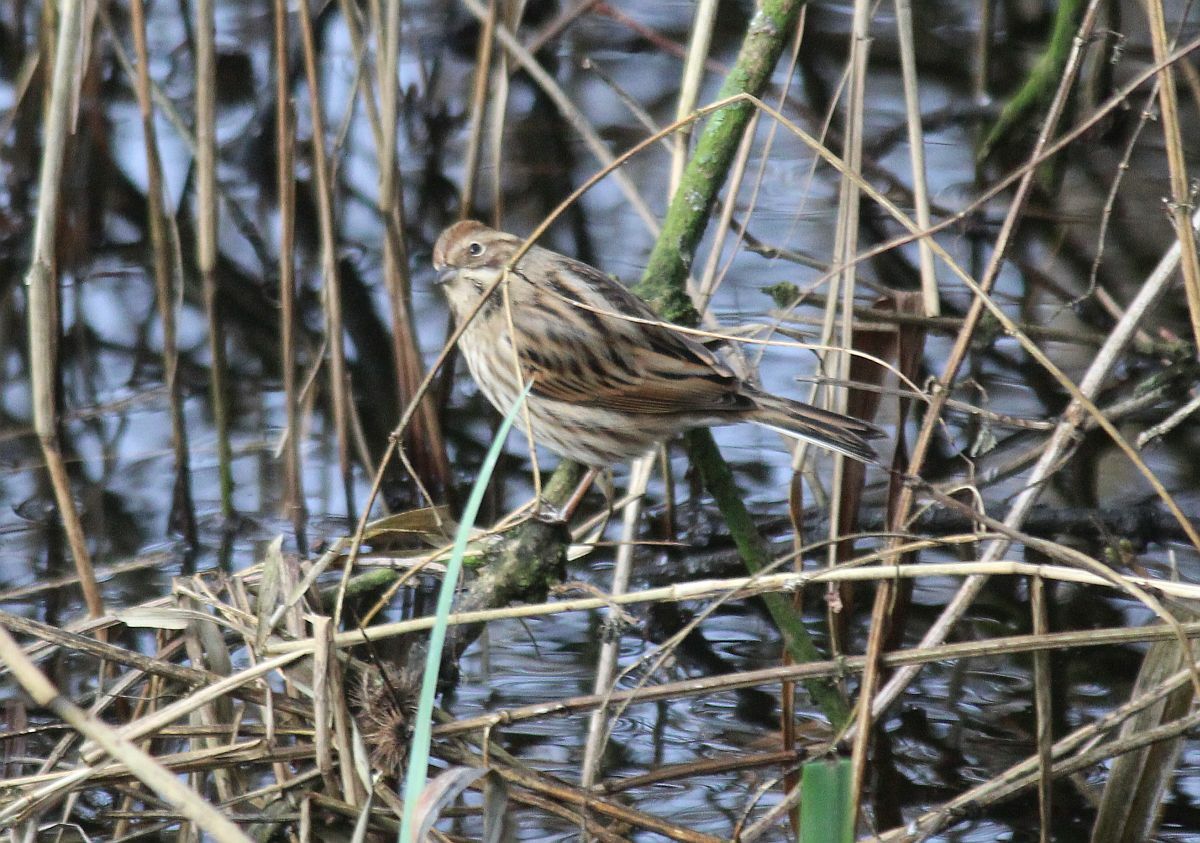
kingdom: Animalia
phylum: Chordata
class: Aves
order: Passeriformes
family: Emberizidae
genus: Emberiza
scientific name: Emberiza schoeniclus
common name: Reed bunting
